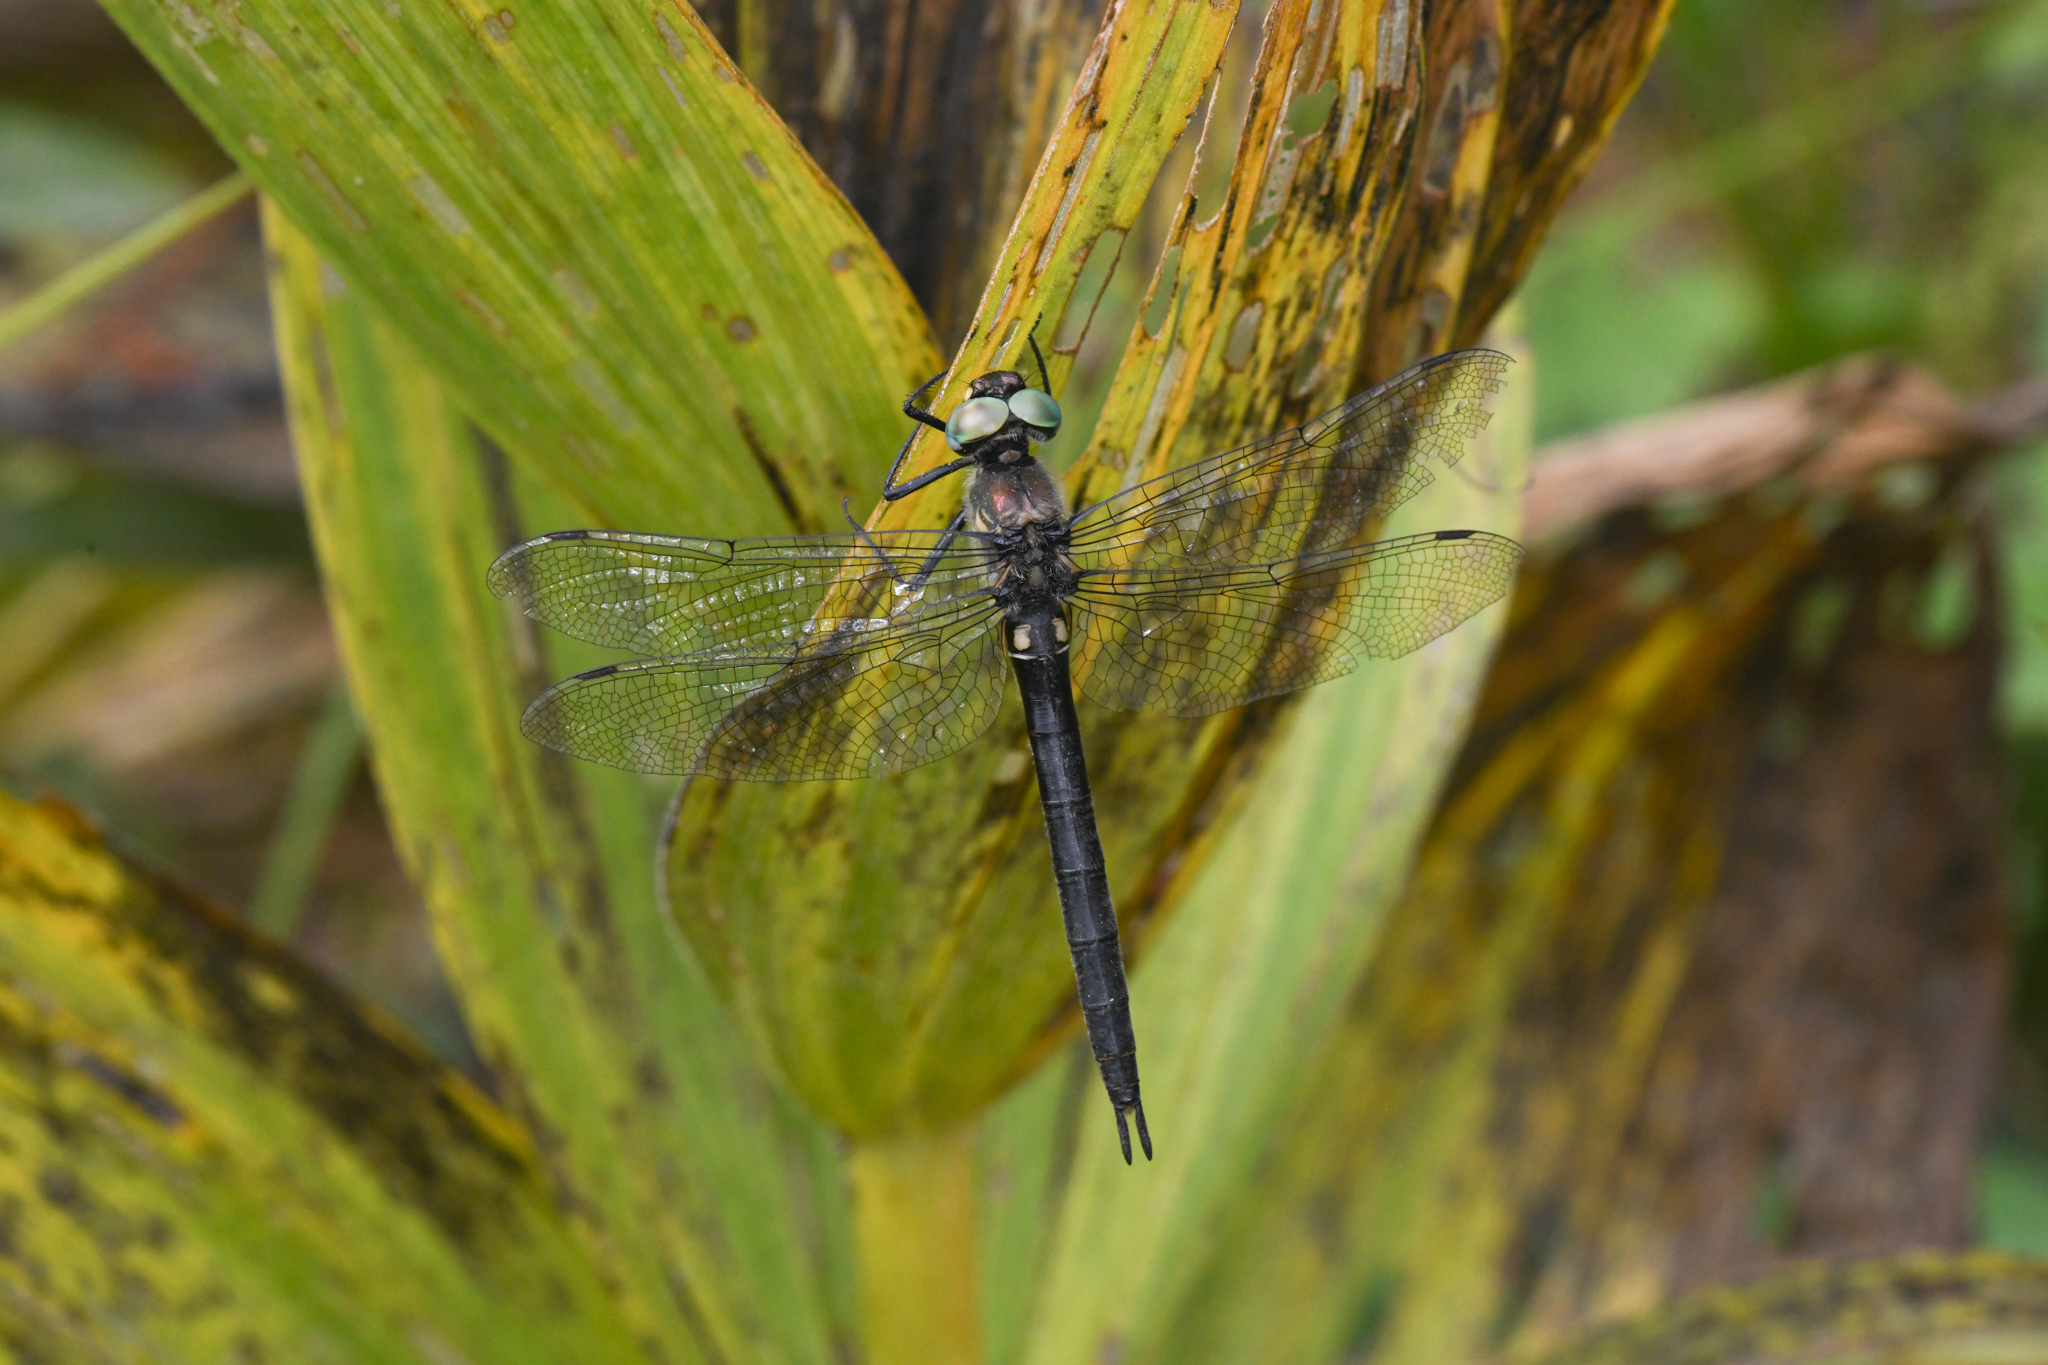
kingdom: Animalia
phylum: Arthropoda
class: Insecta
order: Odonata
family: Corduliidae
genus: Somatochlora
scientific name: Somatochlora semicircularis
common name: Mountain emerald
